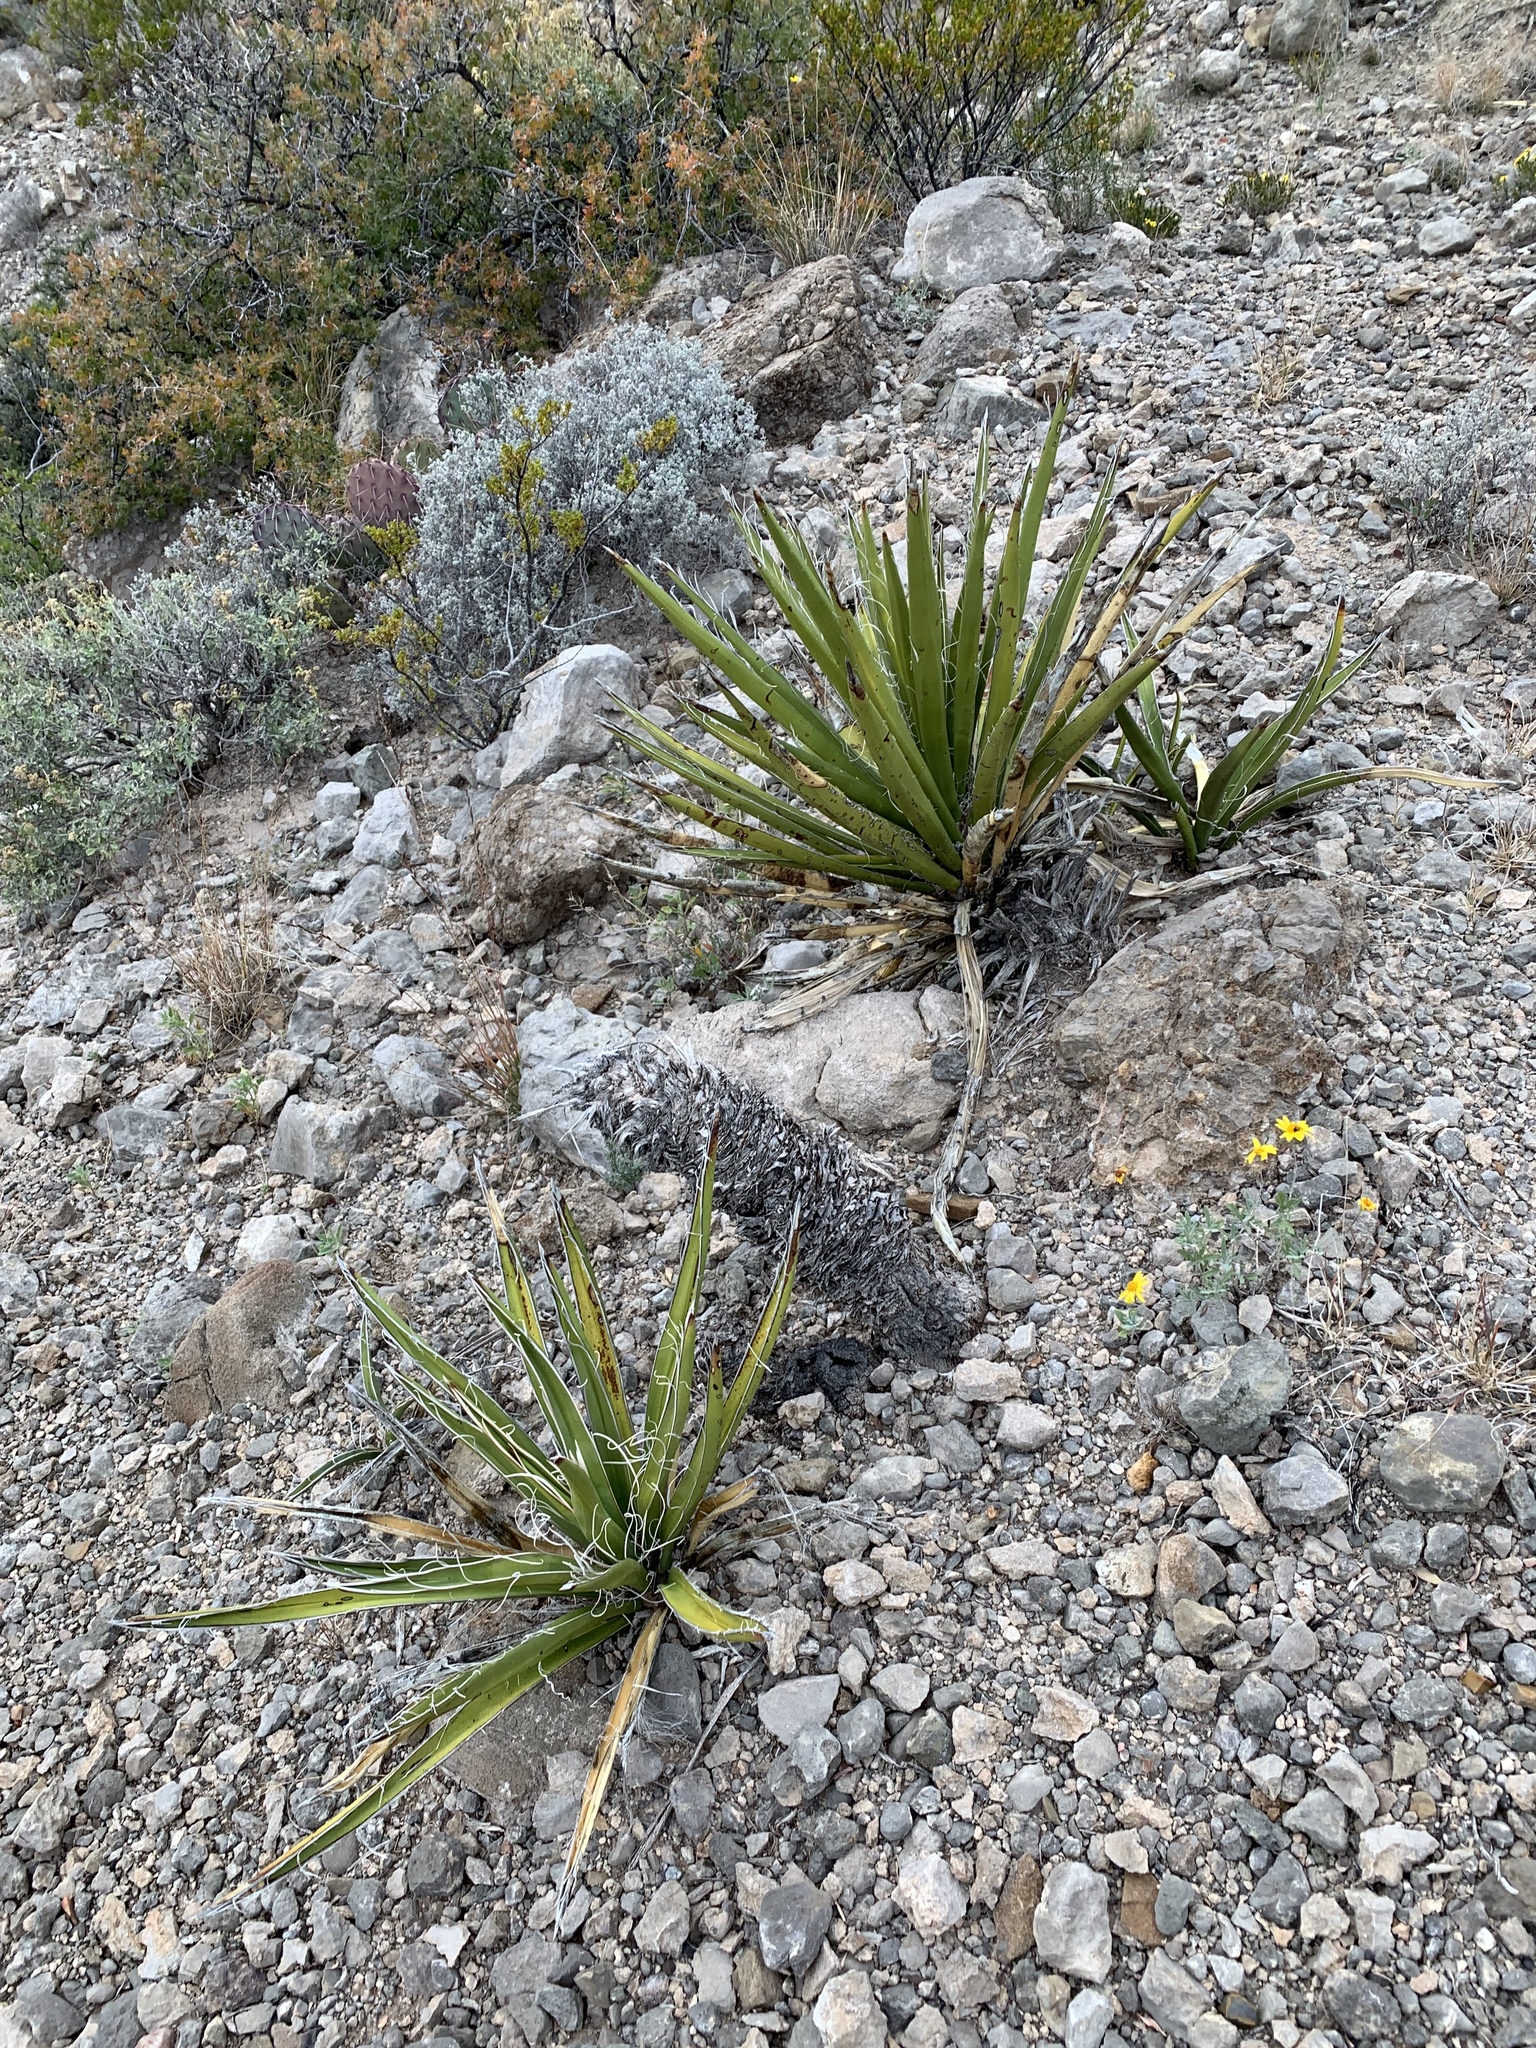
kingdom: Plantae
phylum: Tracheophyta
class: Liliopsida
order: Asparagales
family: Asparagaceae
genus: Yucca
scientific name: Yucca baccata
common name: Banana yucca
